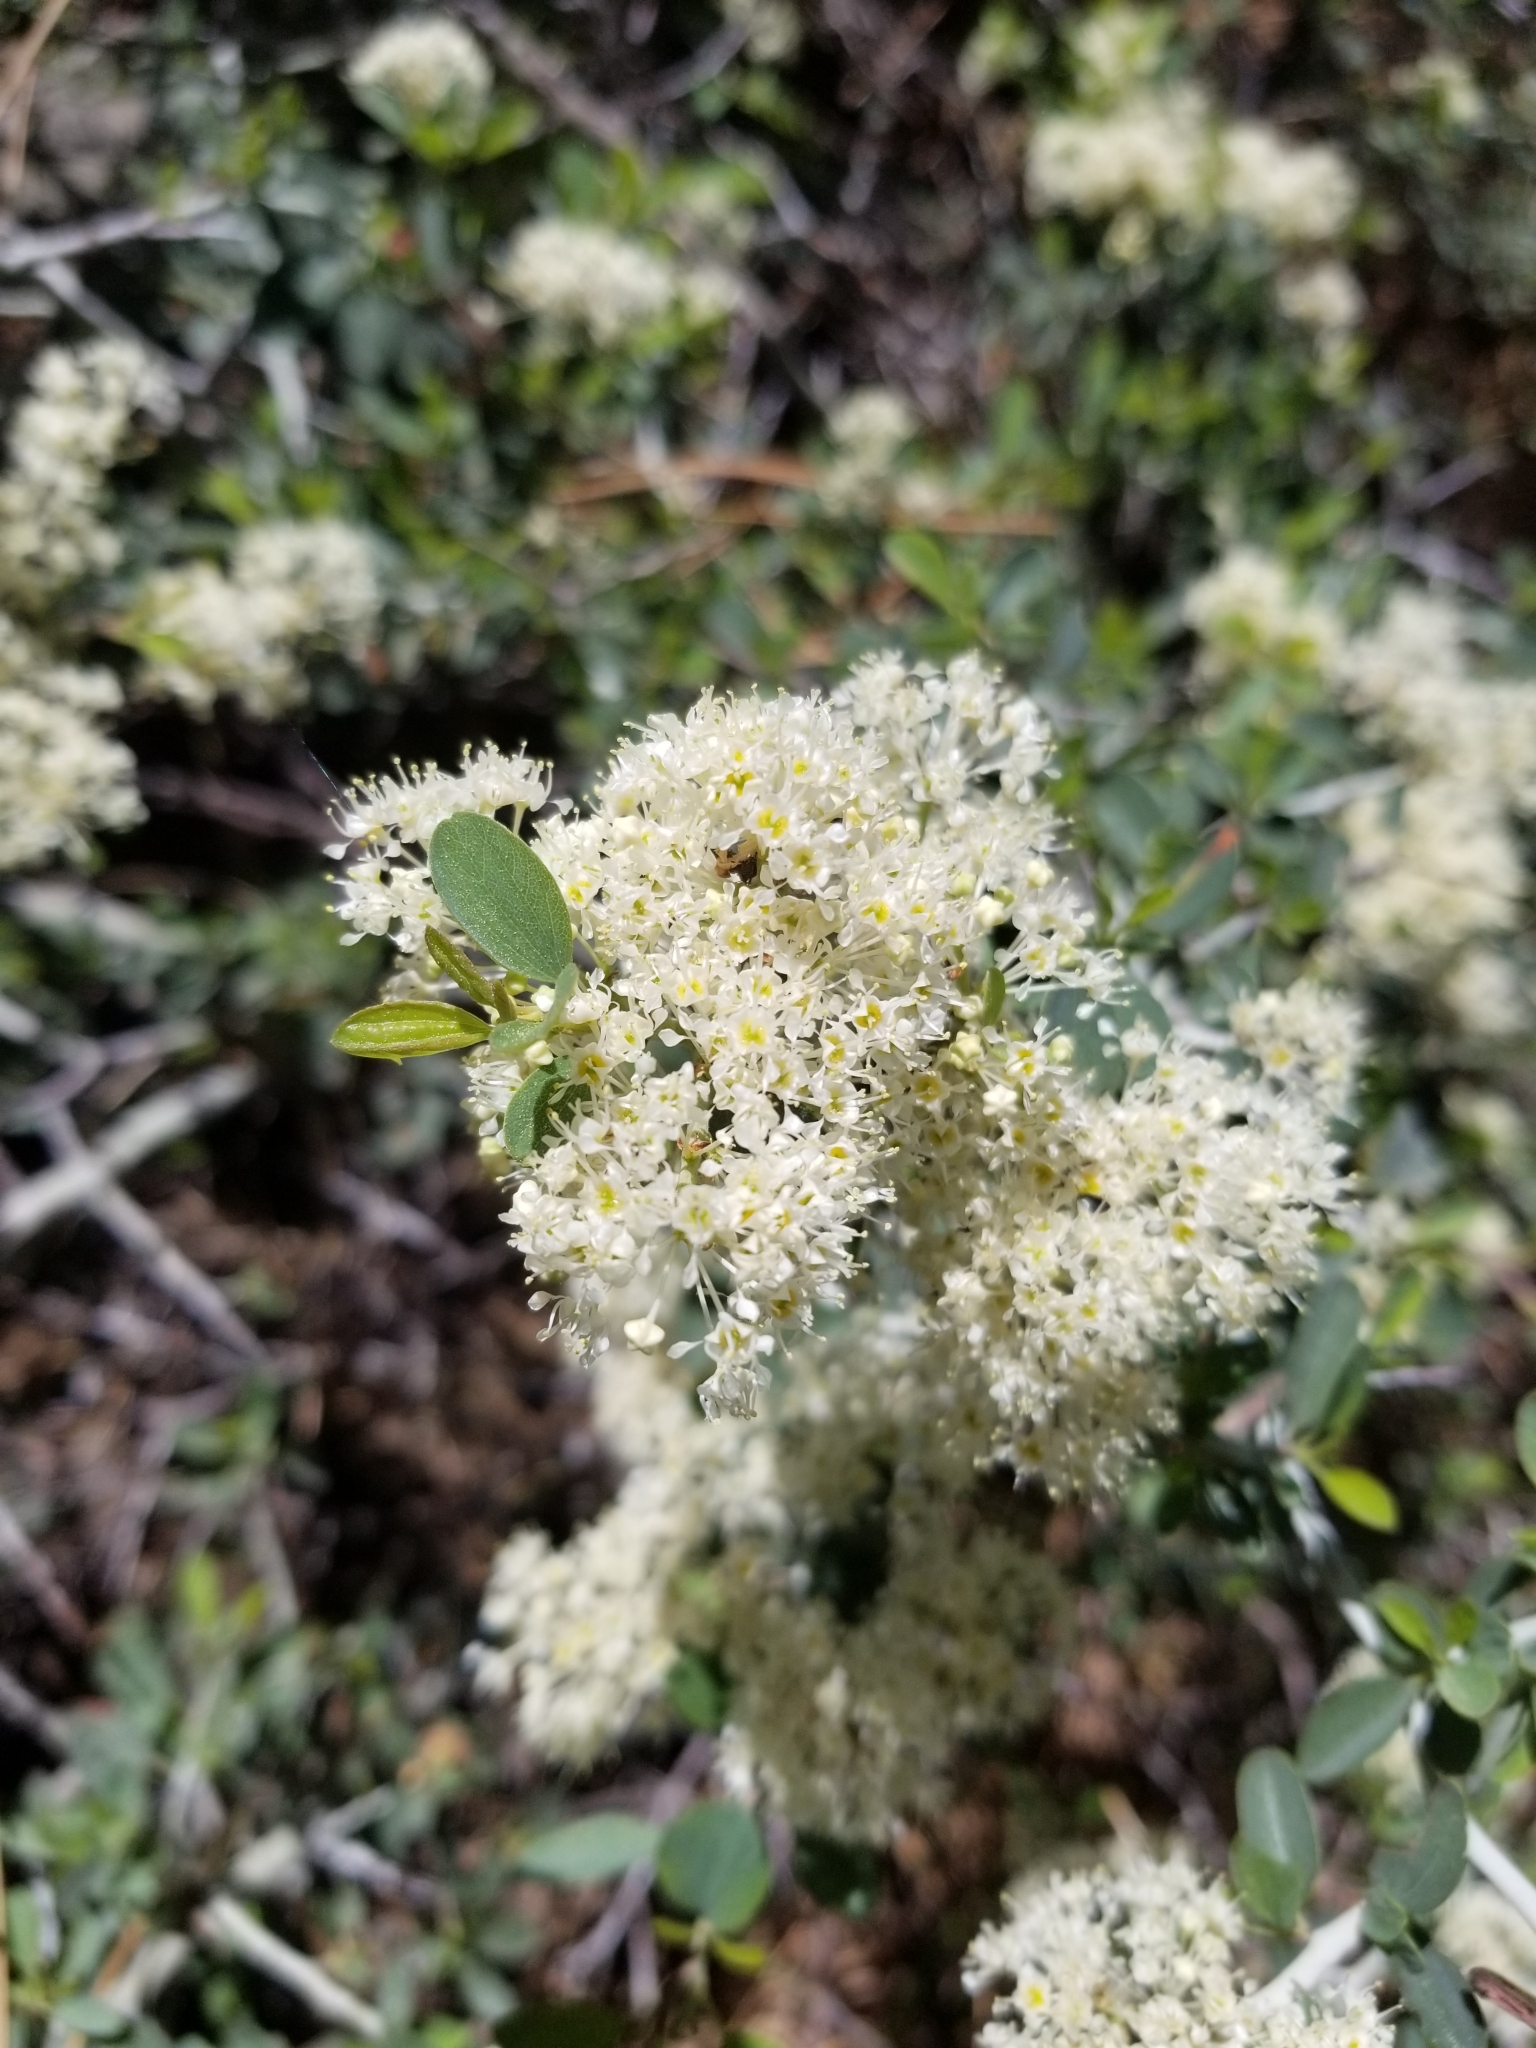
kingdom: Plantae
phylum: Tracheophyta
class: Magnoliopsida
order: Rosales
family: Rhamnaceae
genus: Ceanothus
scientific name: Ceanothus cordulatus
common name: Mountain whitethorn
